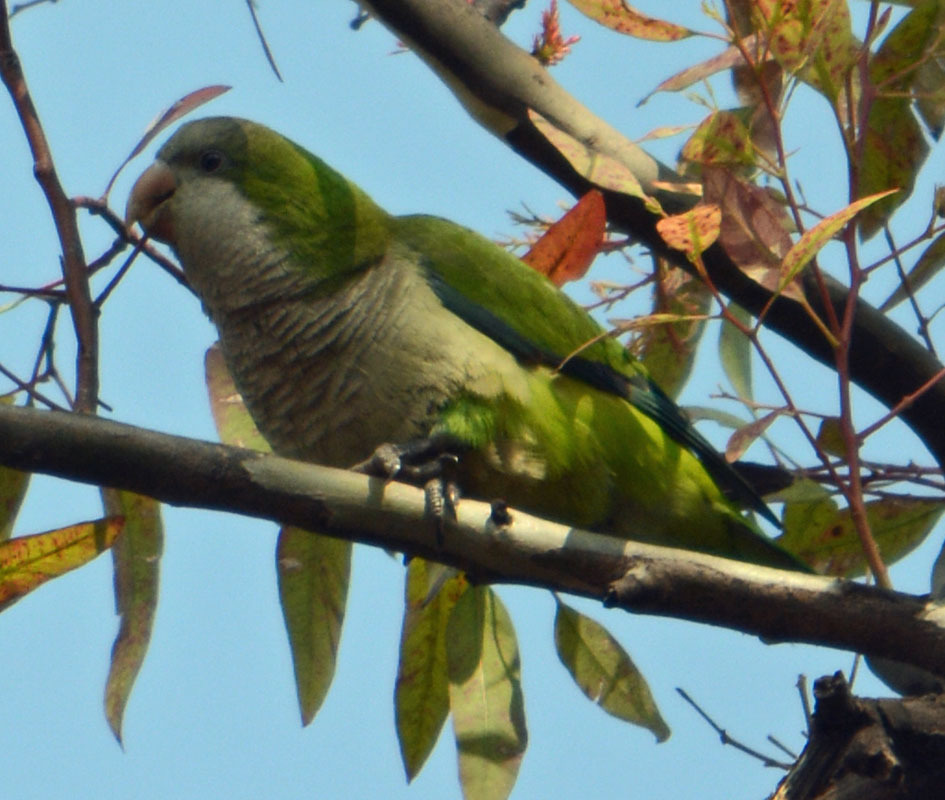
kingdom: Animalia
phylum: Chordata
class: Aves
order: Psittaciformes
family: Psittacidae
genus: Myiopsitta
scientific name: Myiopsitta monachus
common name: Monk parakeet
